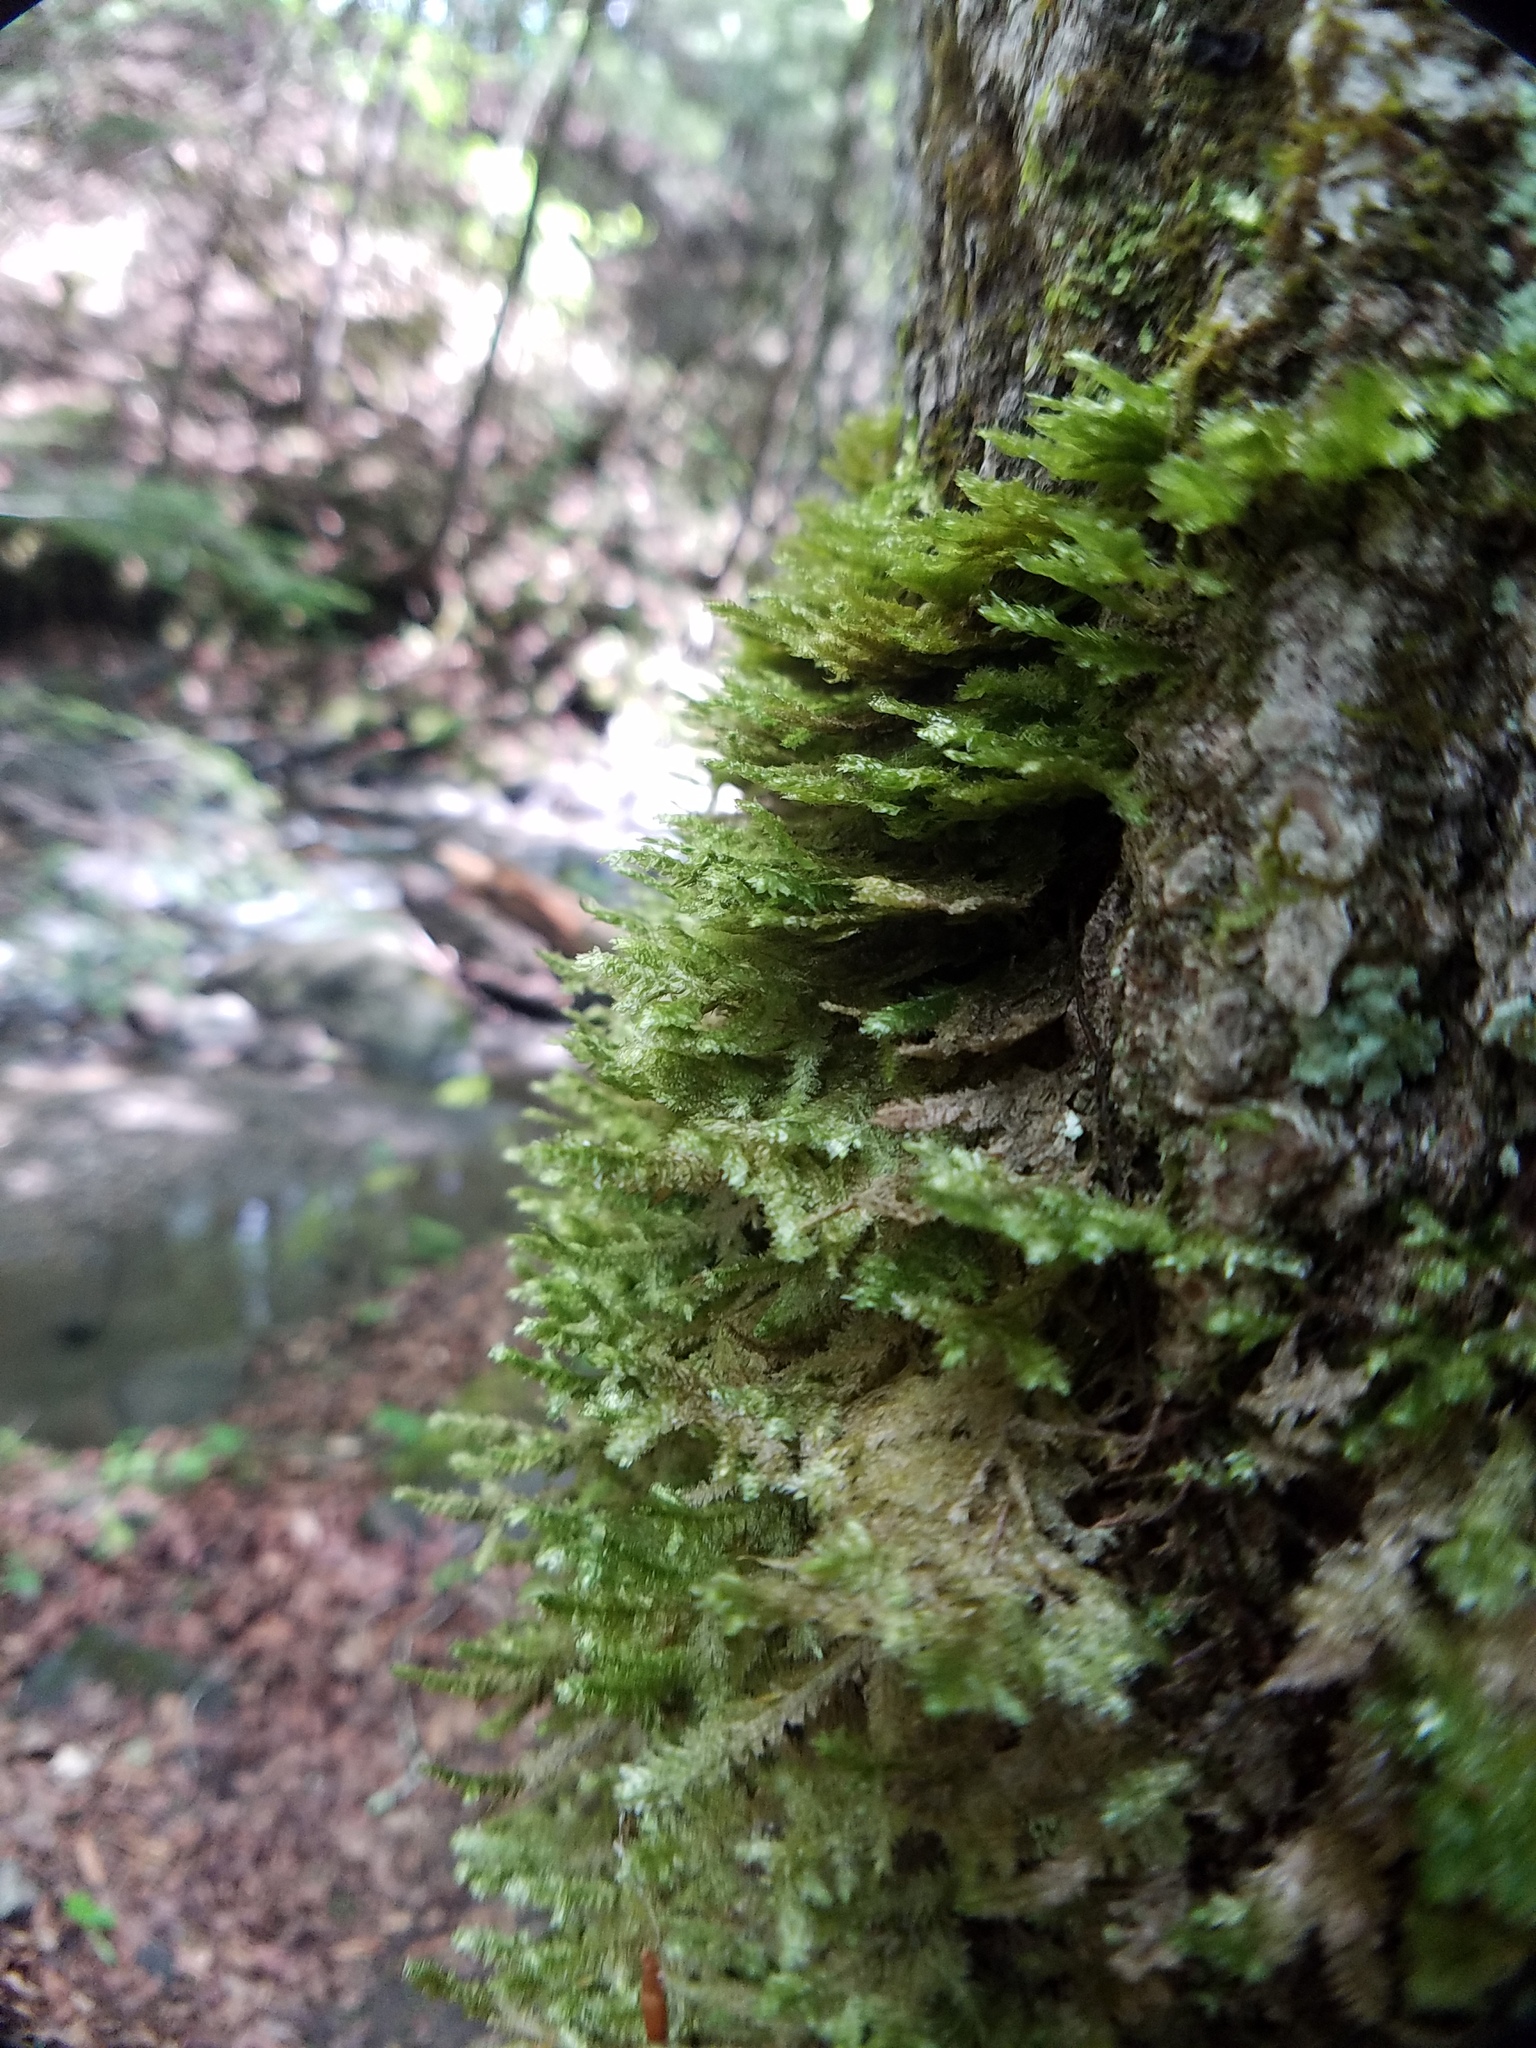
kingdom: Plantae
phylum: Bryophyta
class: Bryopsida
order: Hypnales
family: Neckeraceae
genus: Neckera
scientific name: Neckera pennata
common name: Feathery neckera
